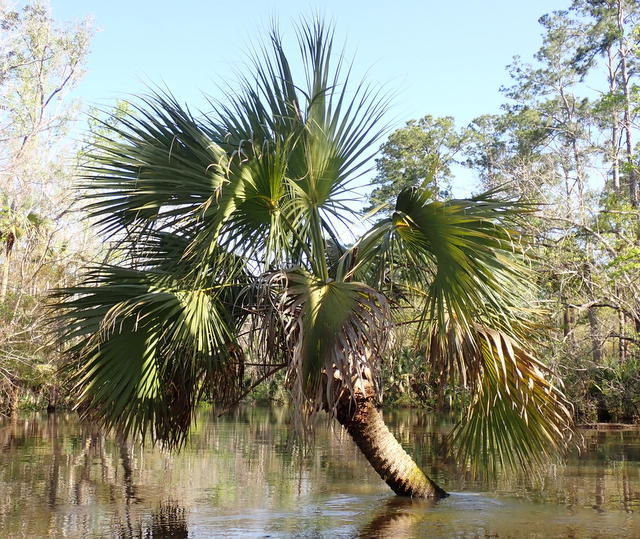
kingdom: Plantae
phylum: Tracheophyta
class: Liliopsida
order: Arecales
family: Arecaceae
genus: Sabal
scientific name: Sabal palmetto
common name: Blue palmetto
